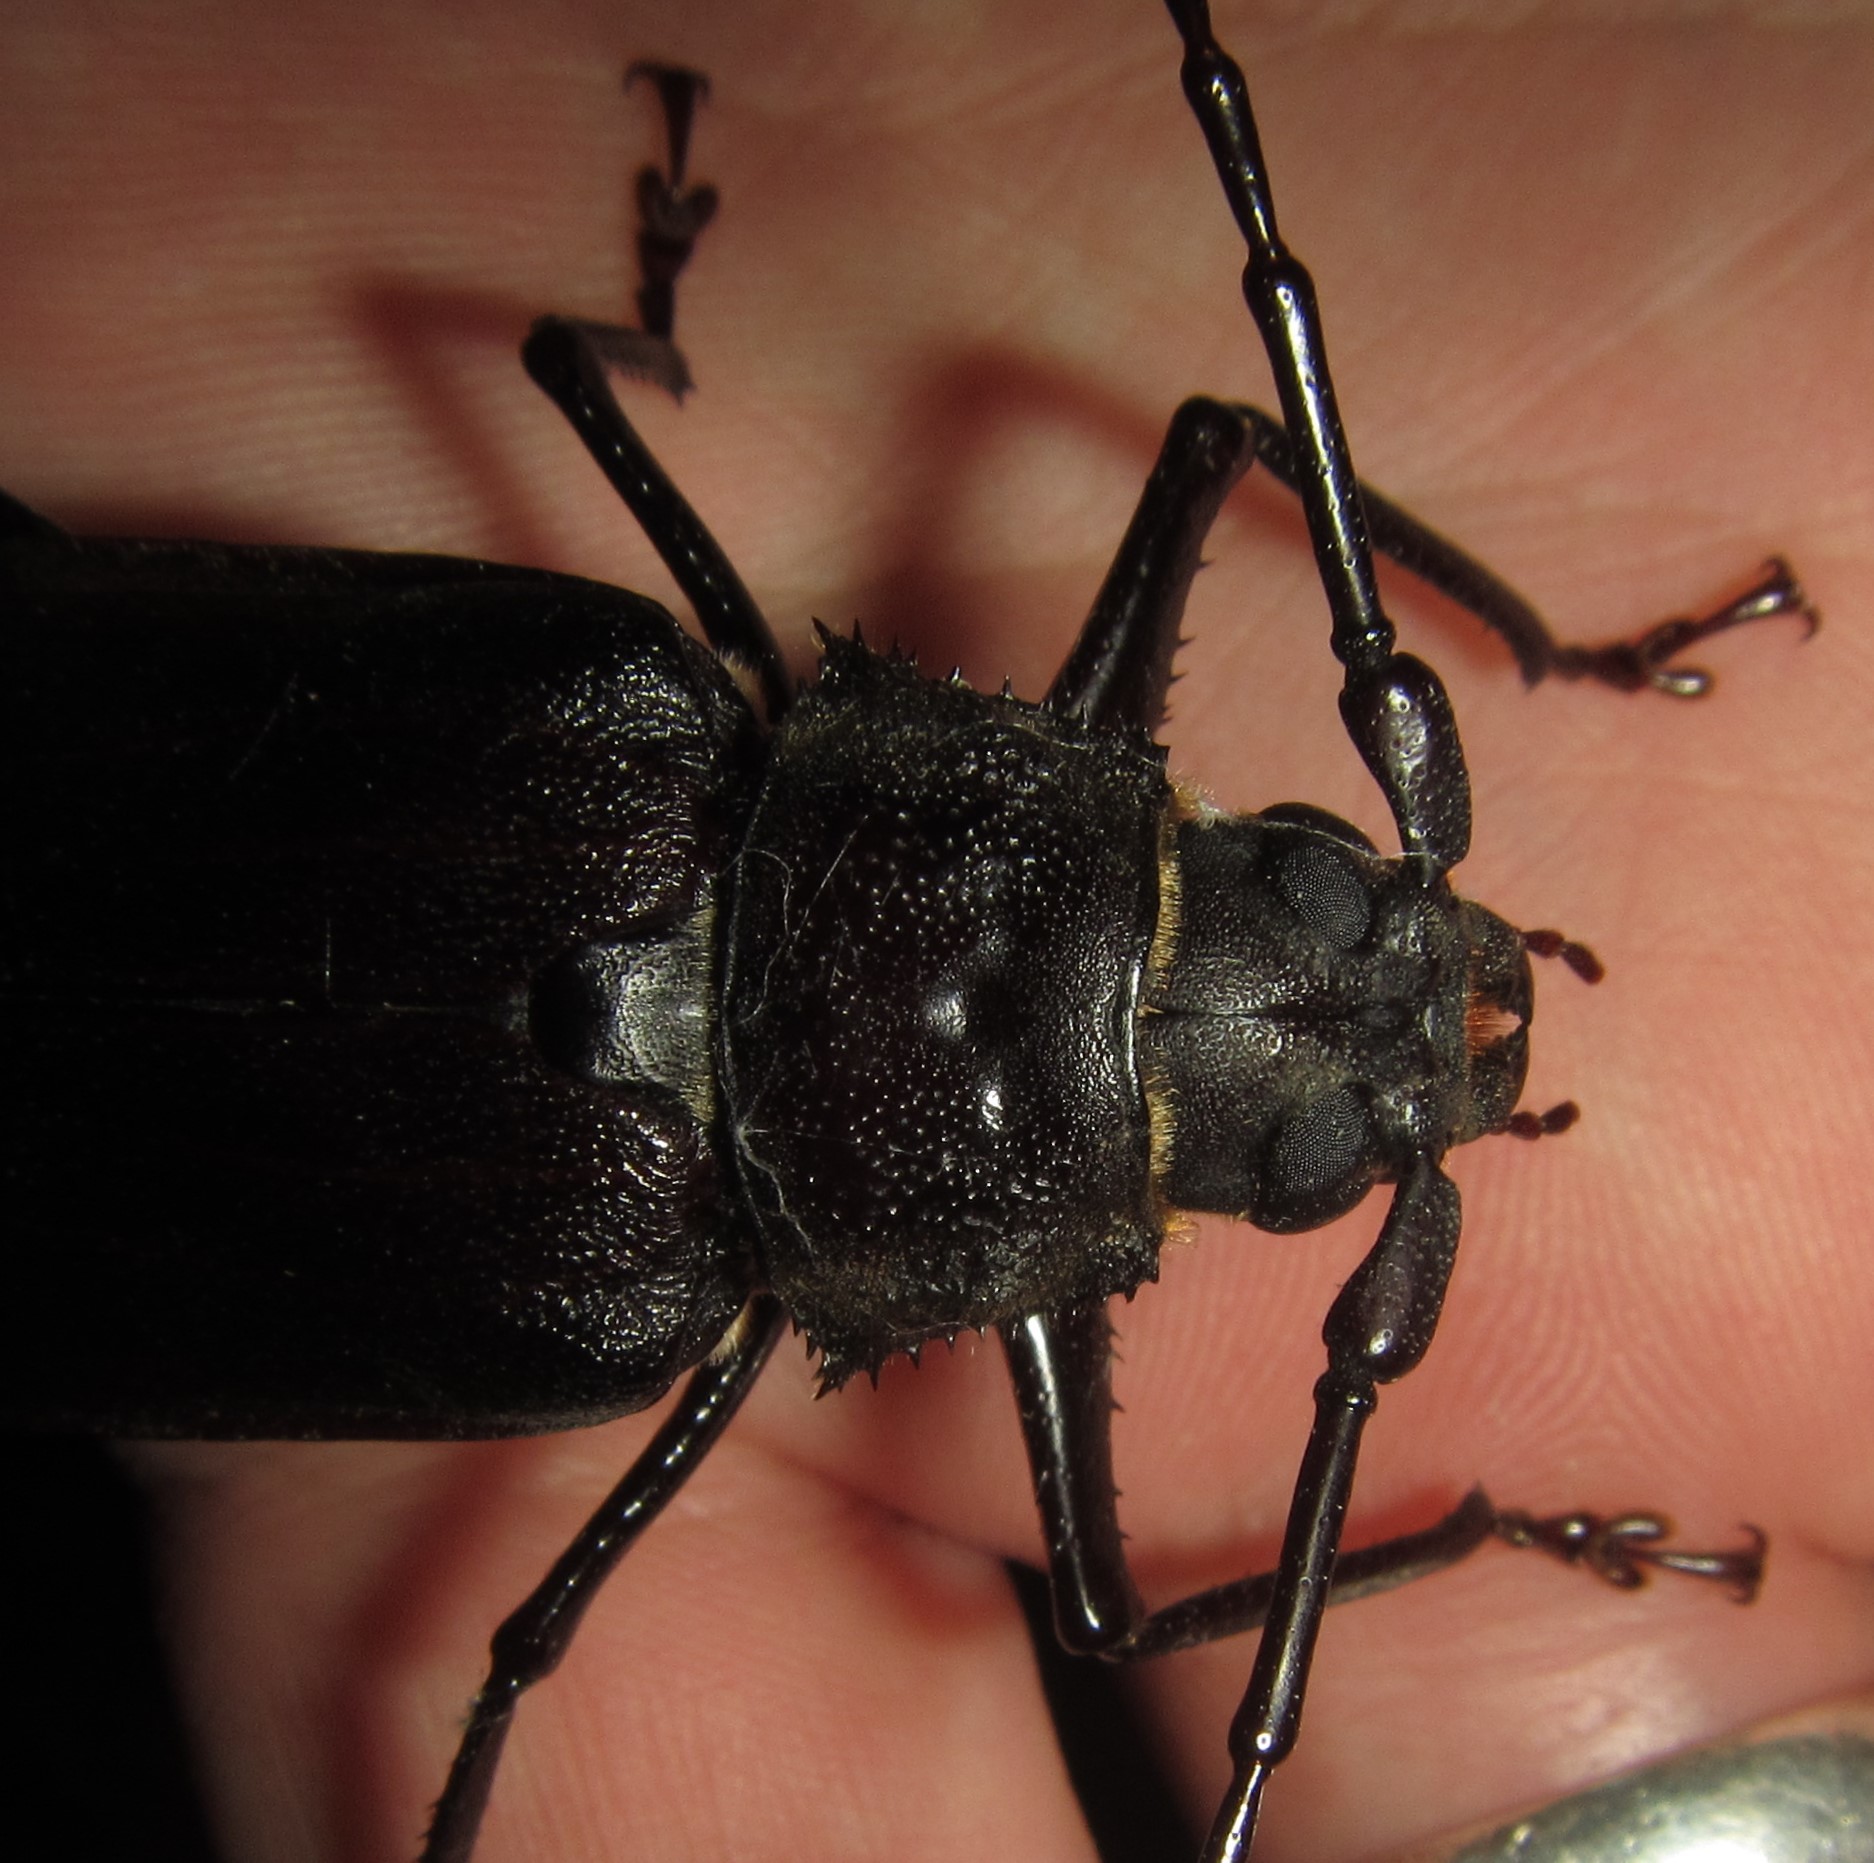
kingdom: Animalia
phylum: Arthropoda
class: Insecta
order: Coleoptera
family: Cerambycidae
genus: Macrotoma
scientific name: Macrotoma natala
